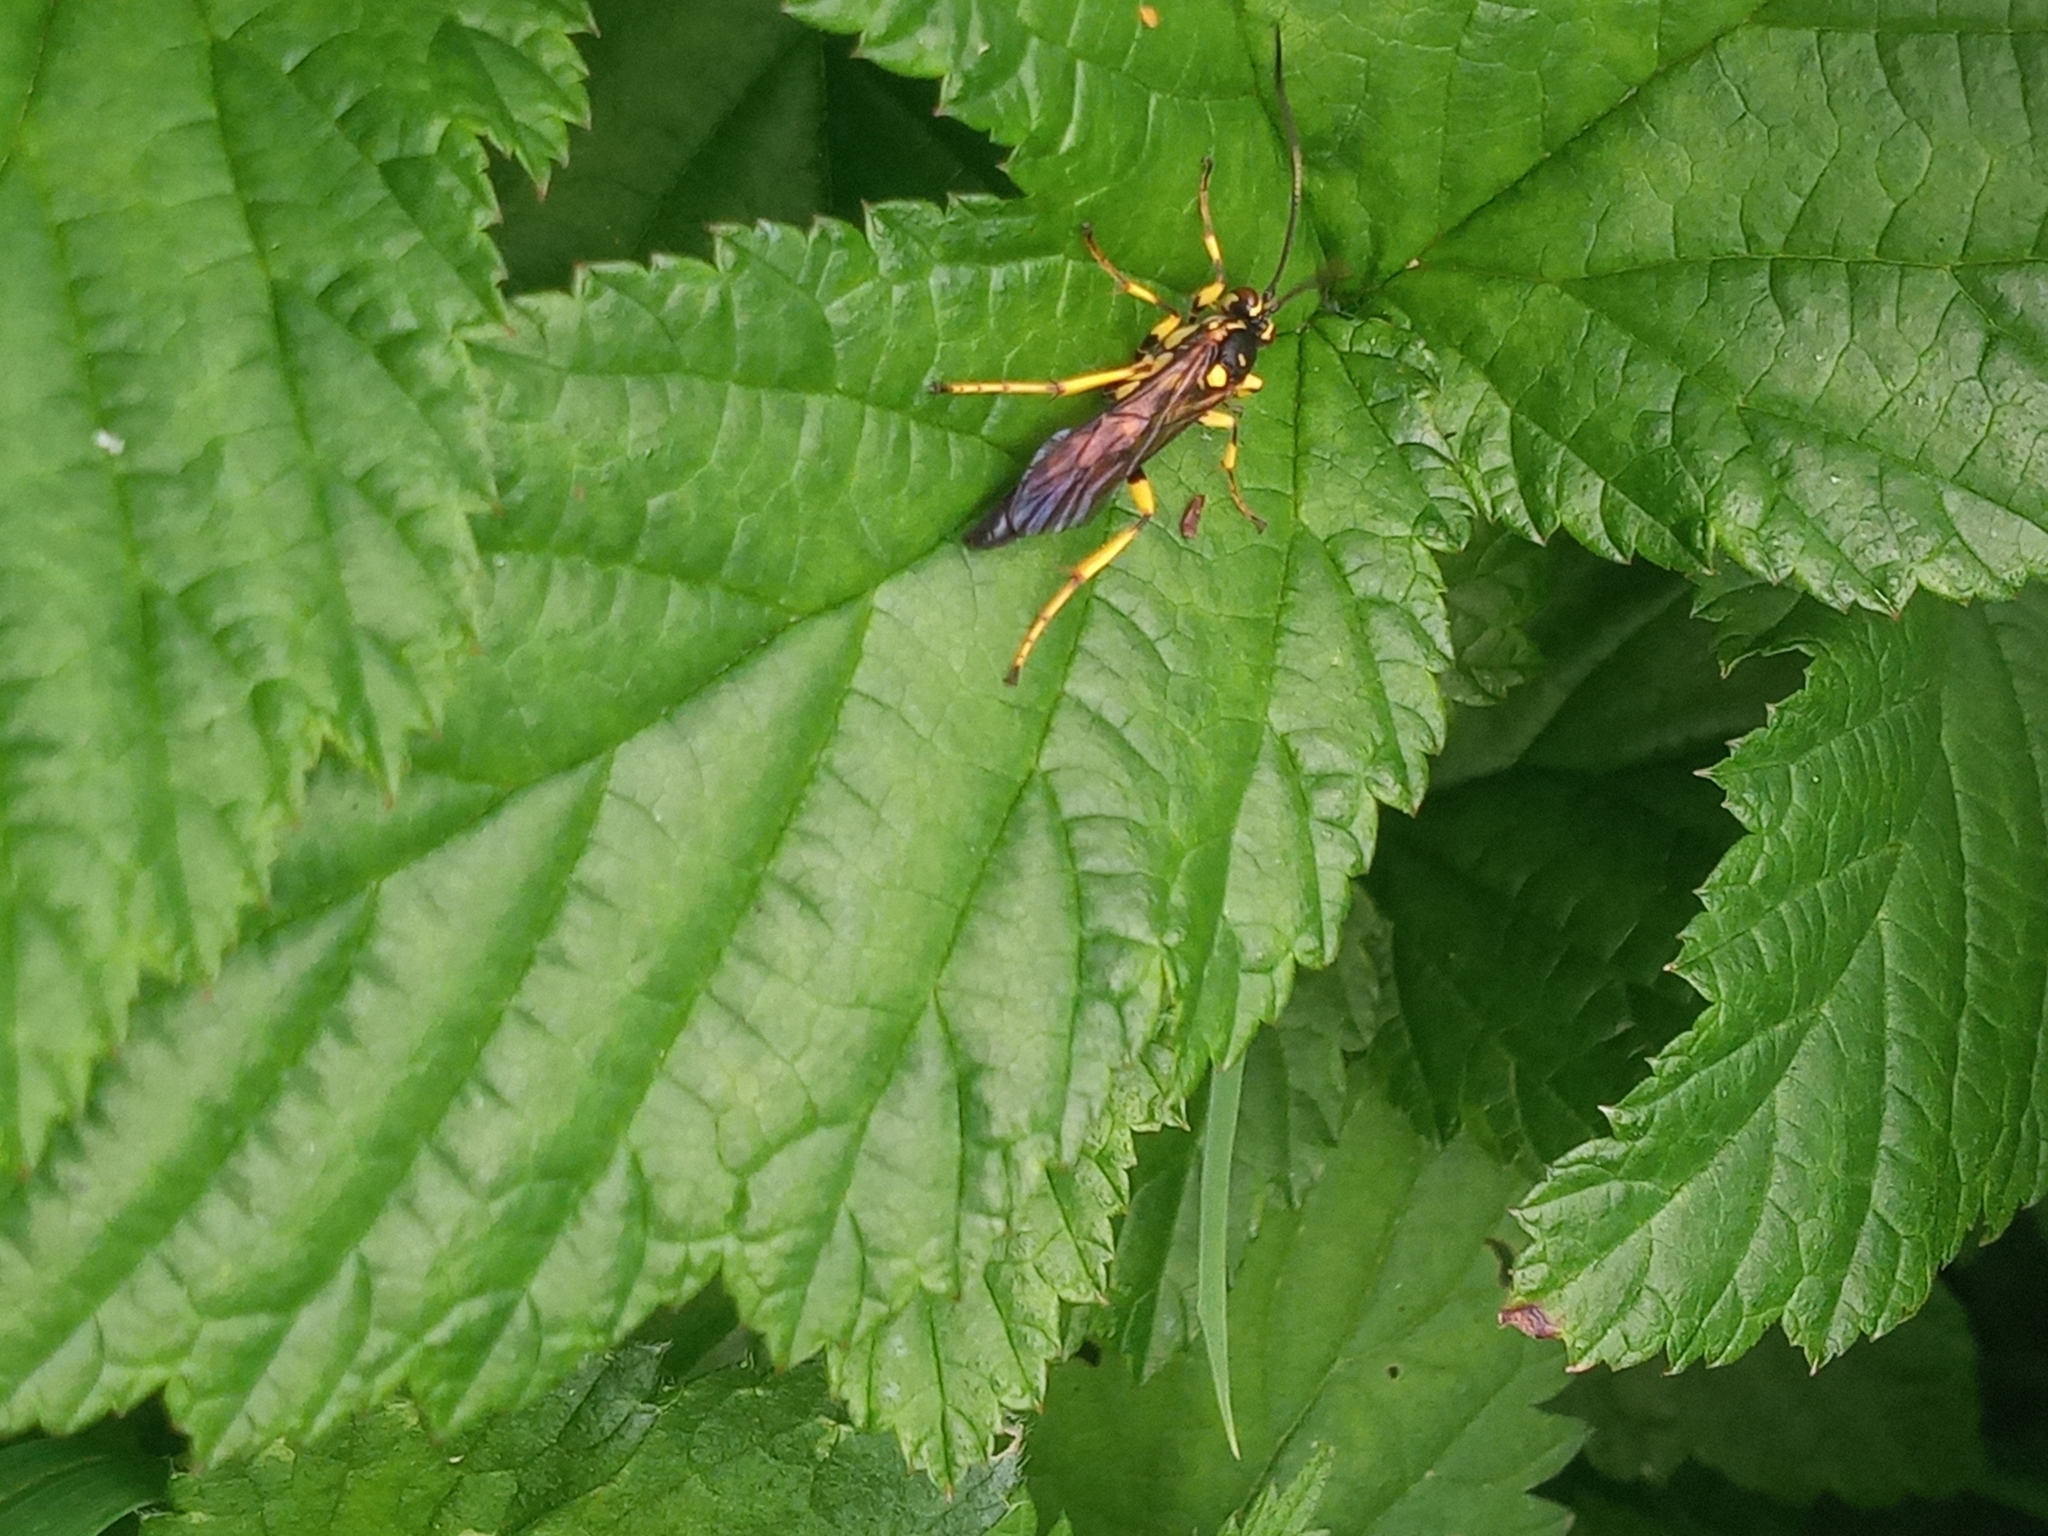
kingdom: Animalia
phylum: Arthropoda
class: Insecta
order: Hymenoptera
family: Ichneumonidae
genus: Hepiopelmus
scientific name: Hepiopelmus variegatorius
